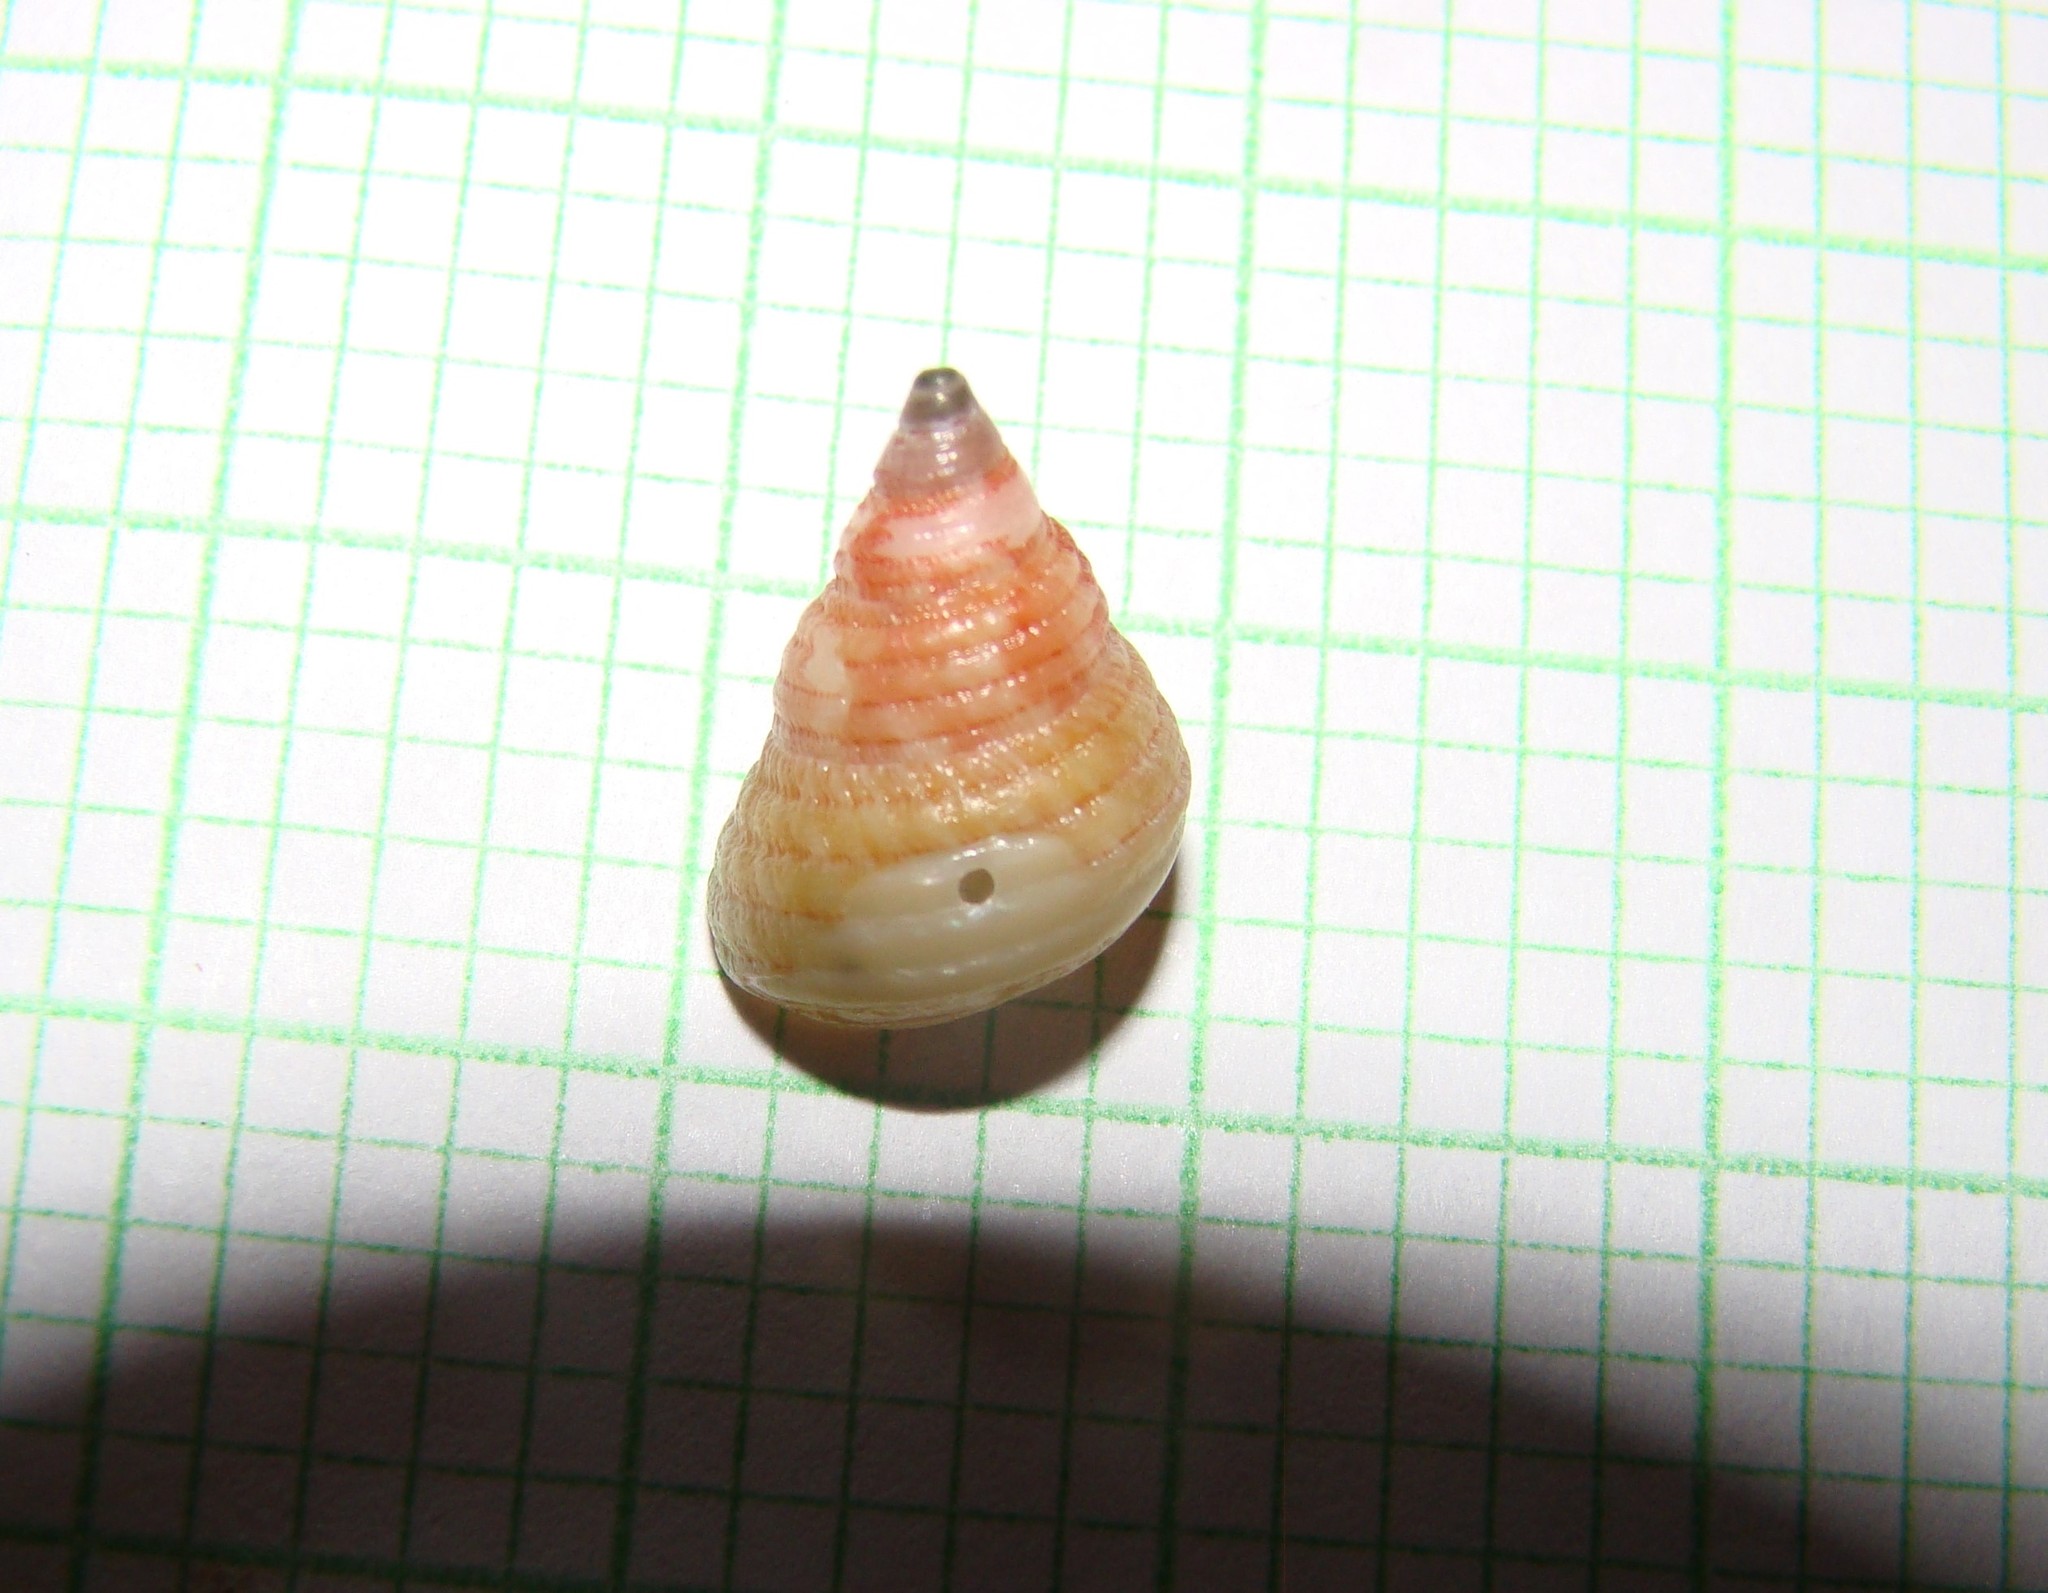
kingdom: Animalia
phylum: Mollusca
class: Gastropoda
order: Trochida
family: Trochidae
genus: Micrelenchus
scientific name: Micrelenchus purpureus
